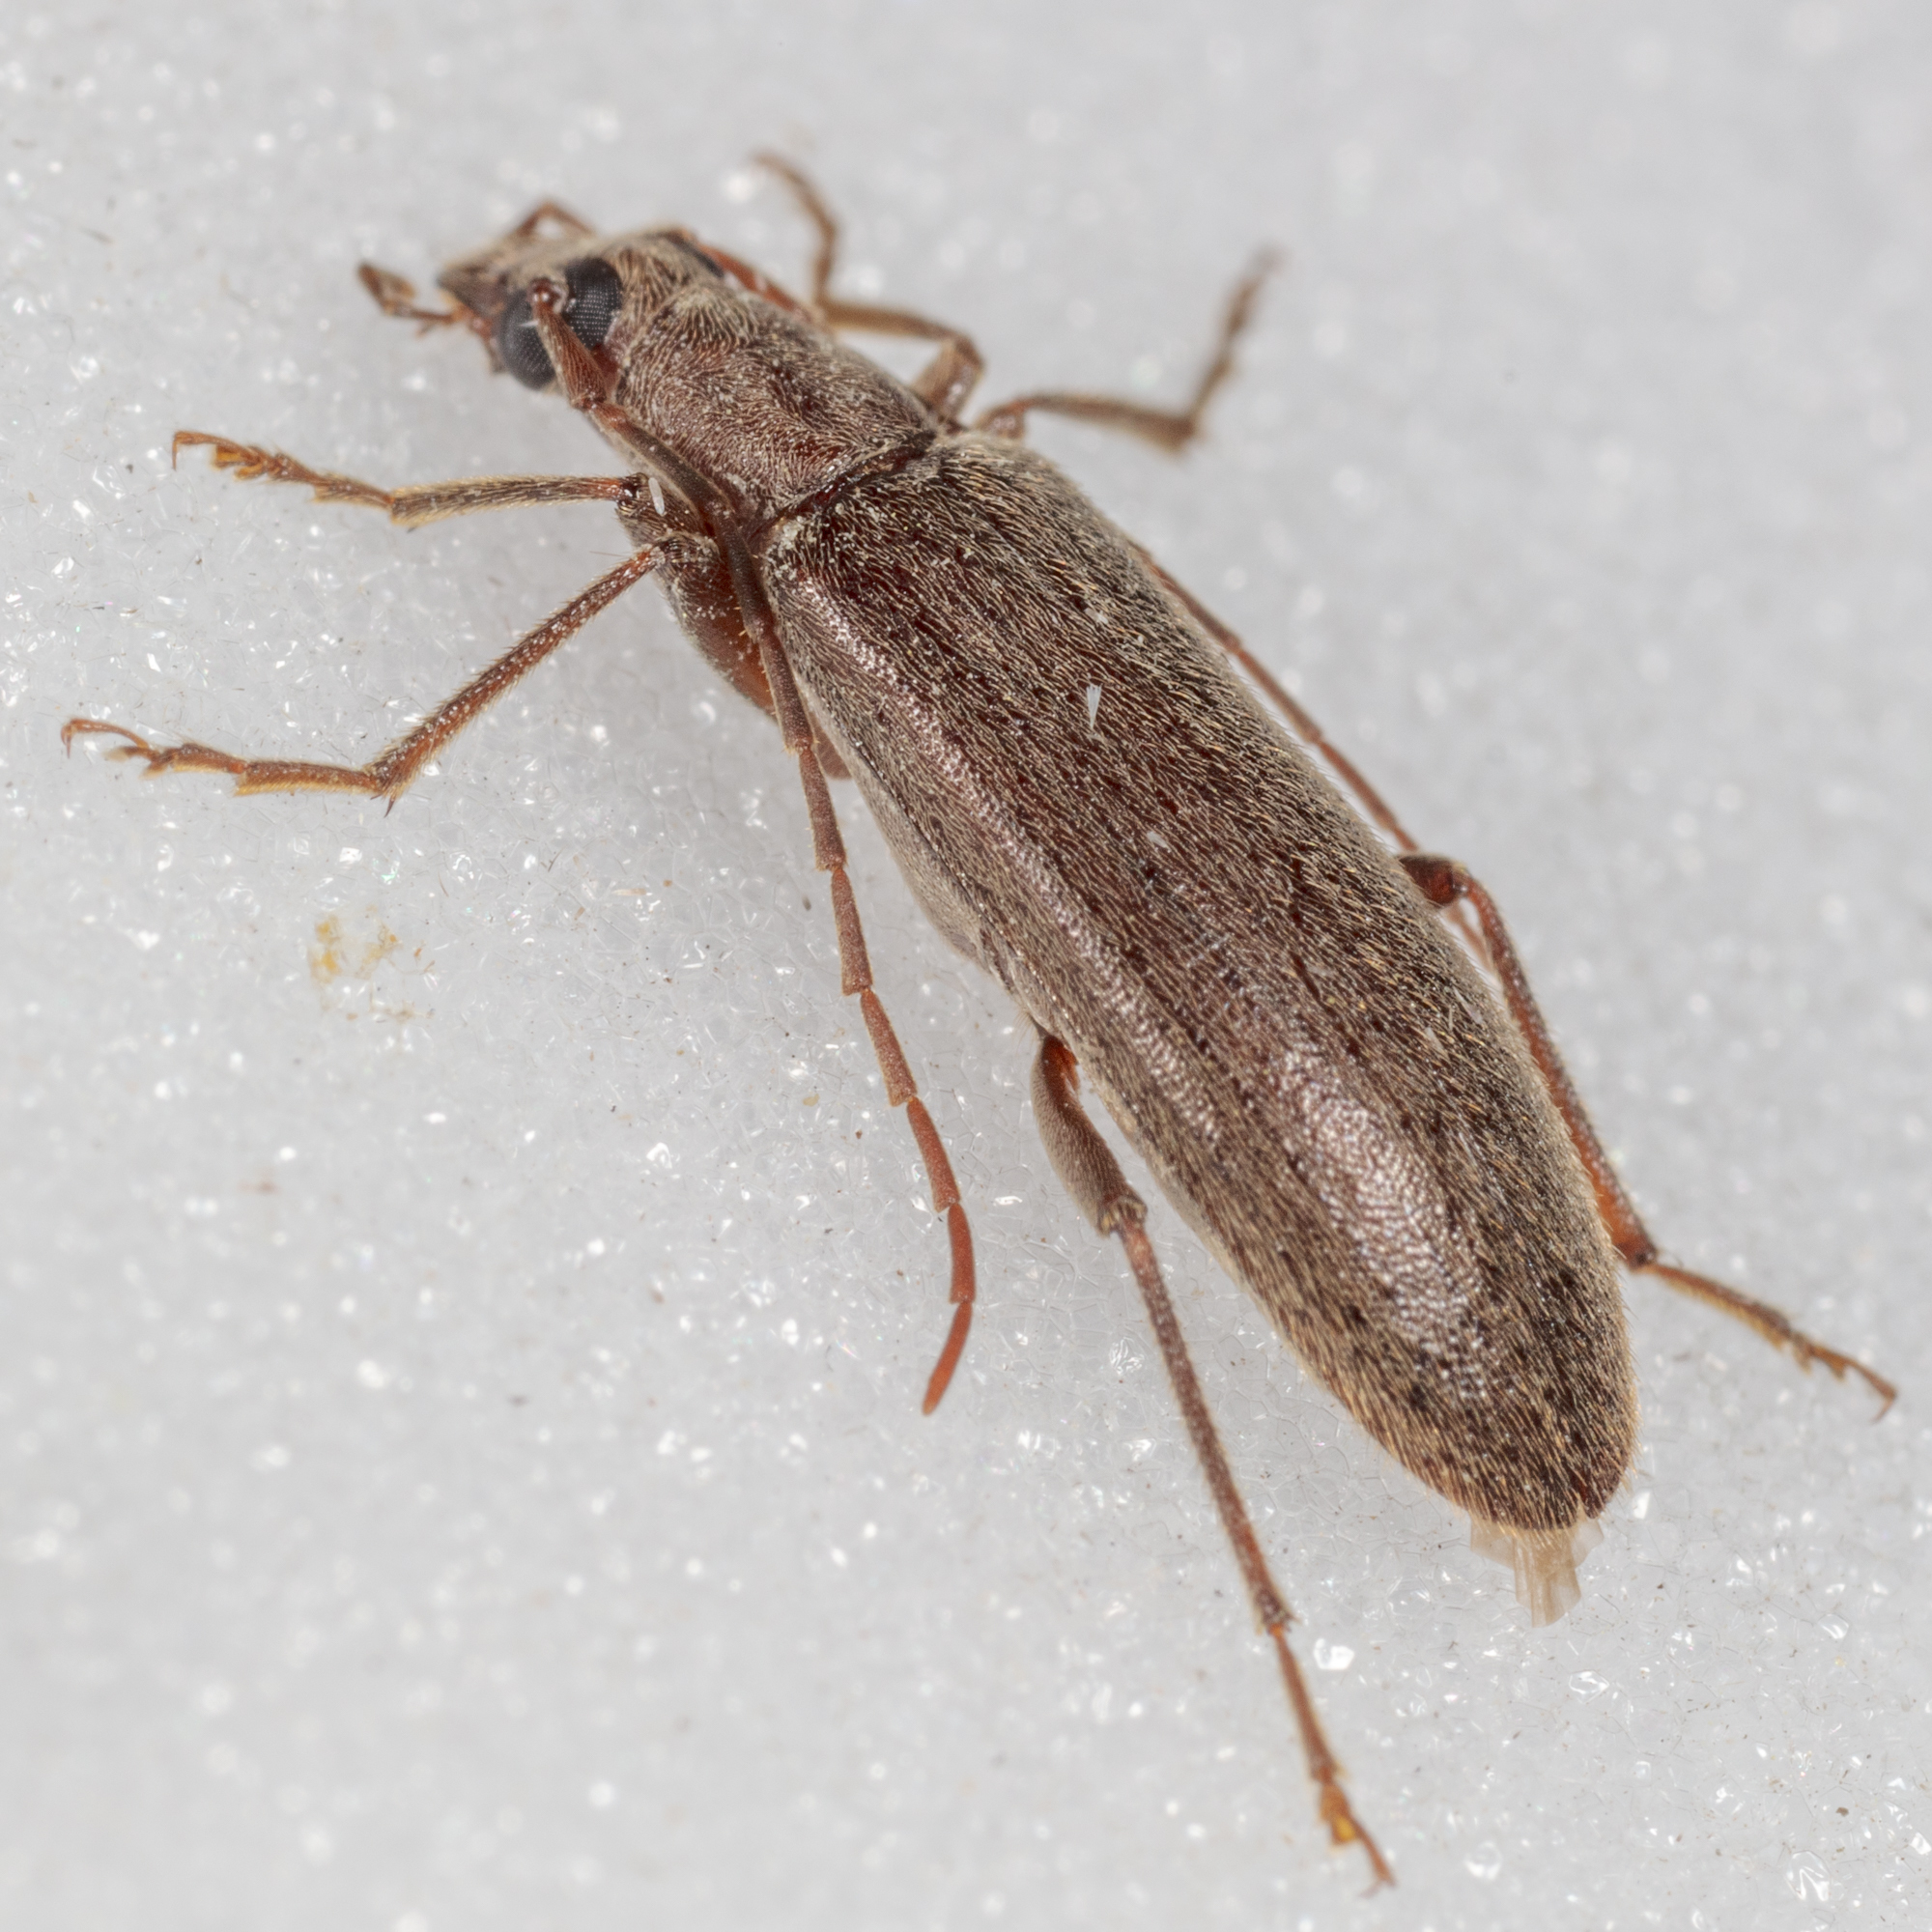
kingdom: Animalia
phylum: Arthropoda
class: Insecta
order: Coleoptera
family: Oedemeridae
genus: Sparedrus
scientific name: Sparedrus aspersus
